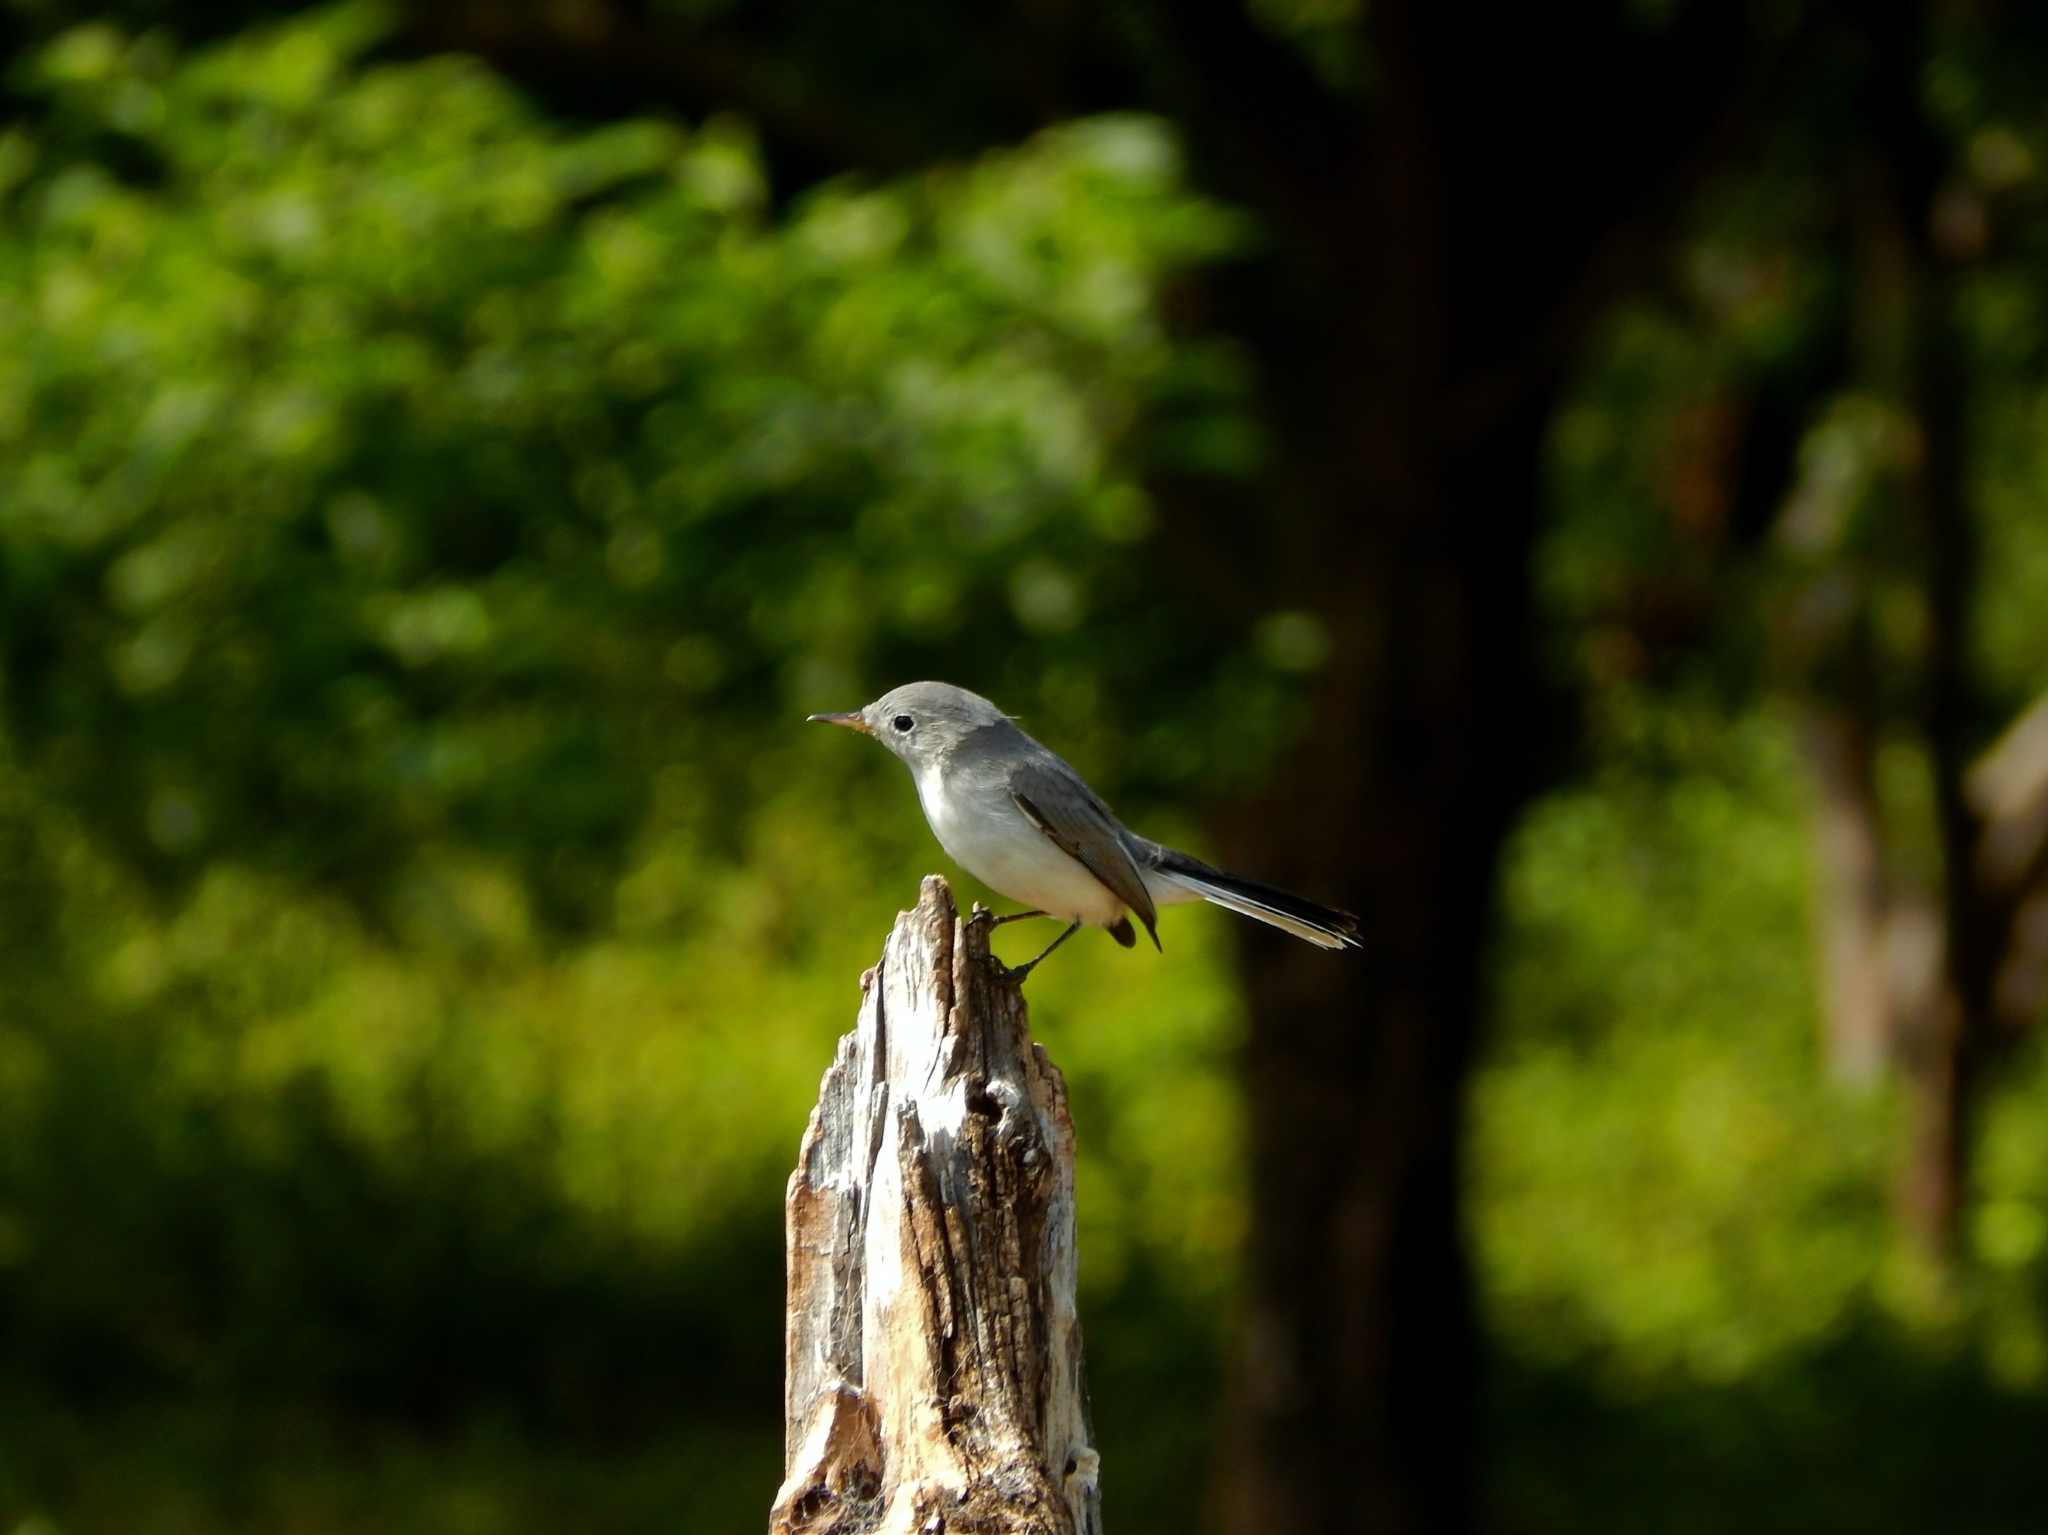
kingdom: Animalia
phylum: Chordata
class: Aves
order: Passeriformes
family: Polioptilidae
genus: Polioptila
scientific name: Polioptila caerulea
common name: Blue-gray gnatcatcher
